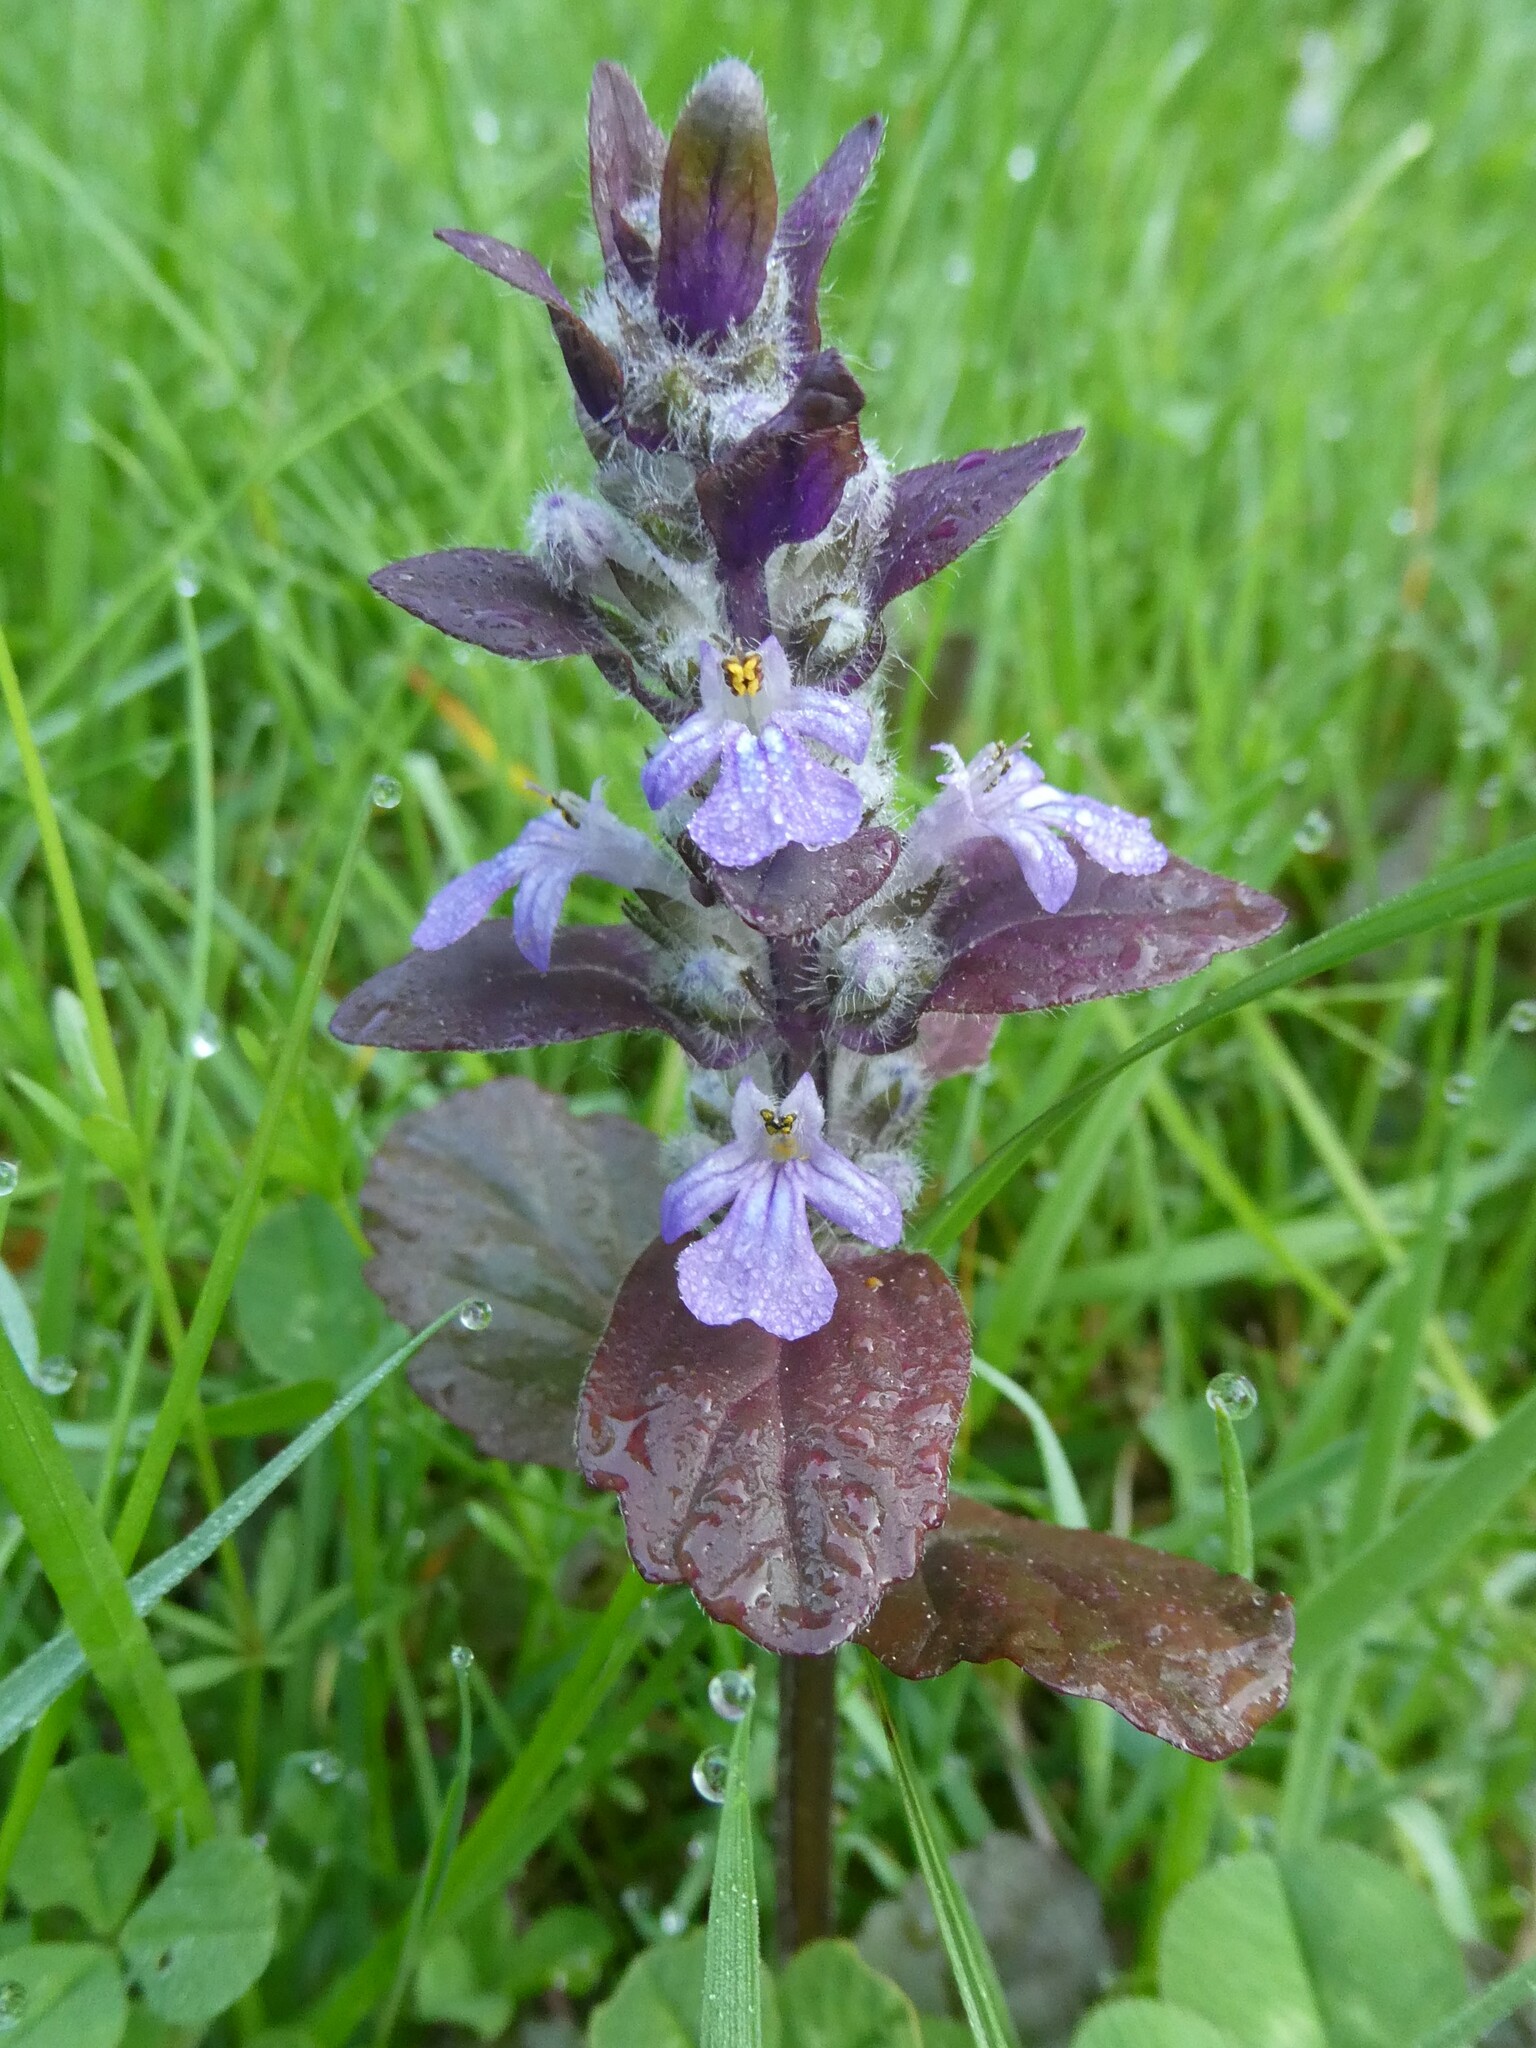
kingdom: Plantae
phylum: Tracheophyta
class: Magnoliopsida
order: Lamiales
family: Lamiaceae
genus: Ajuga
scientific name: Ajuga reptans
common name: Bugle
